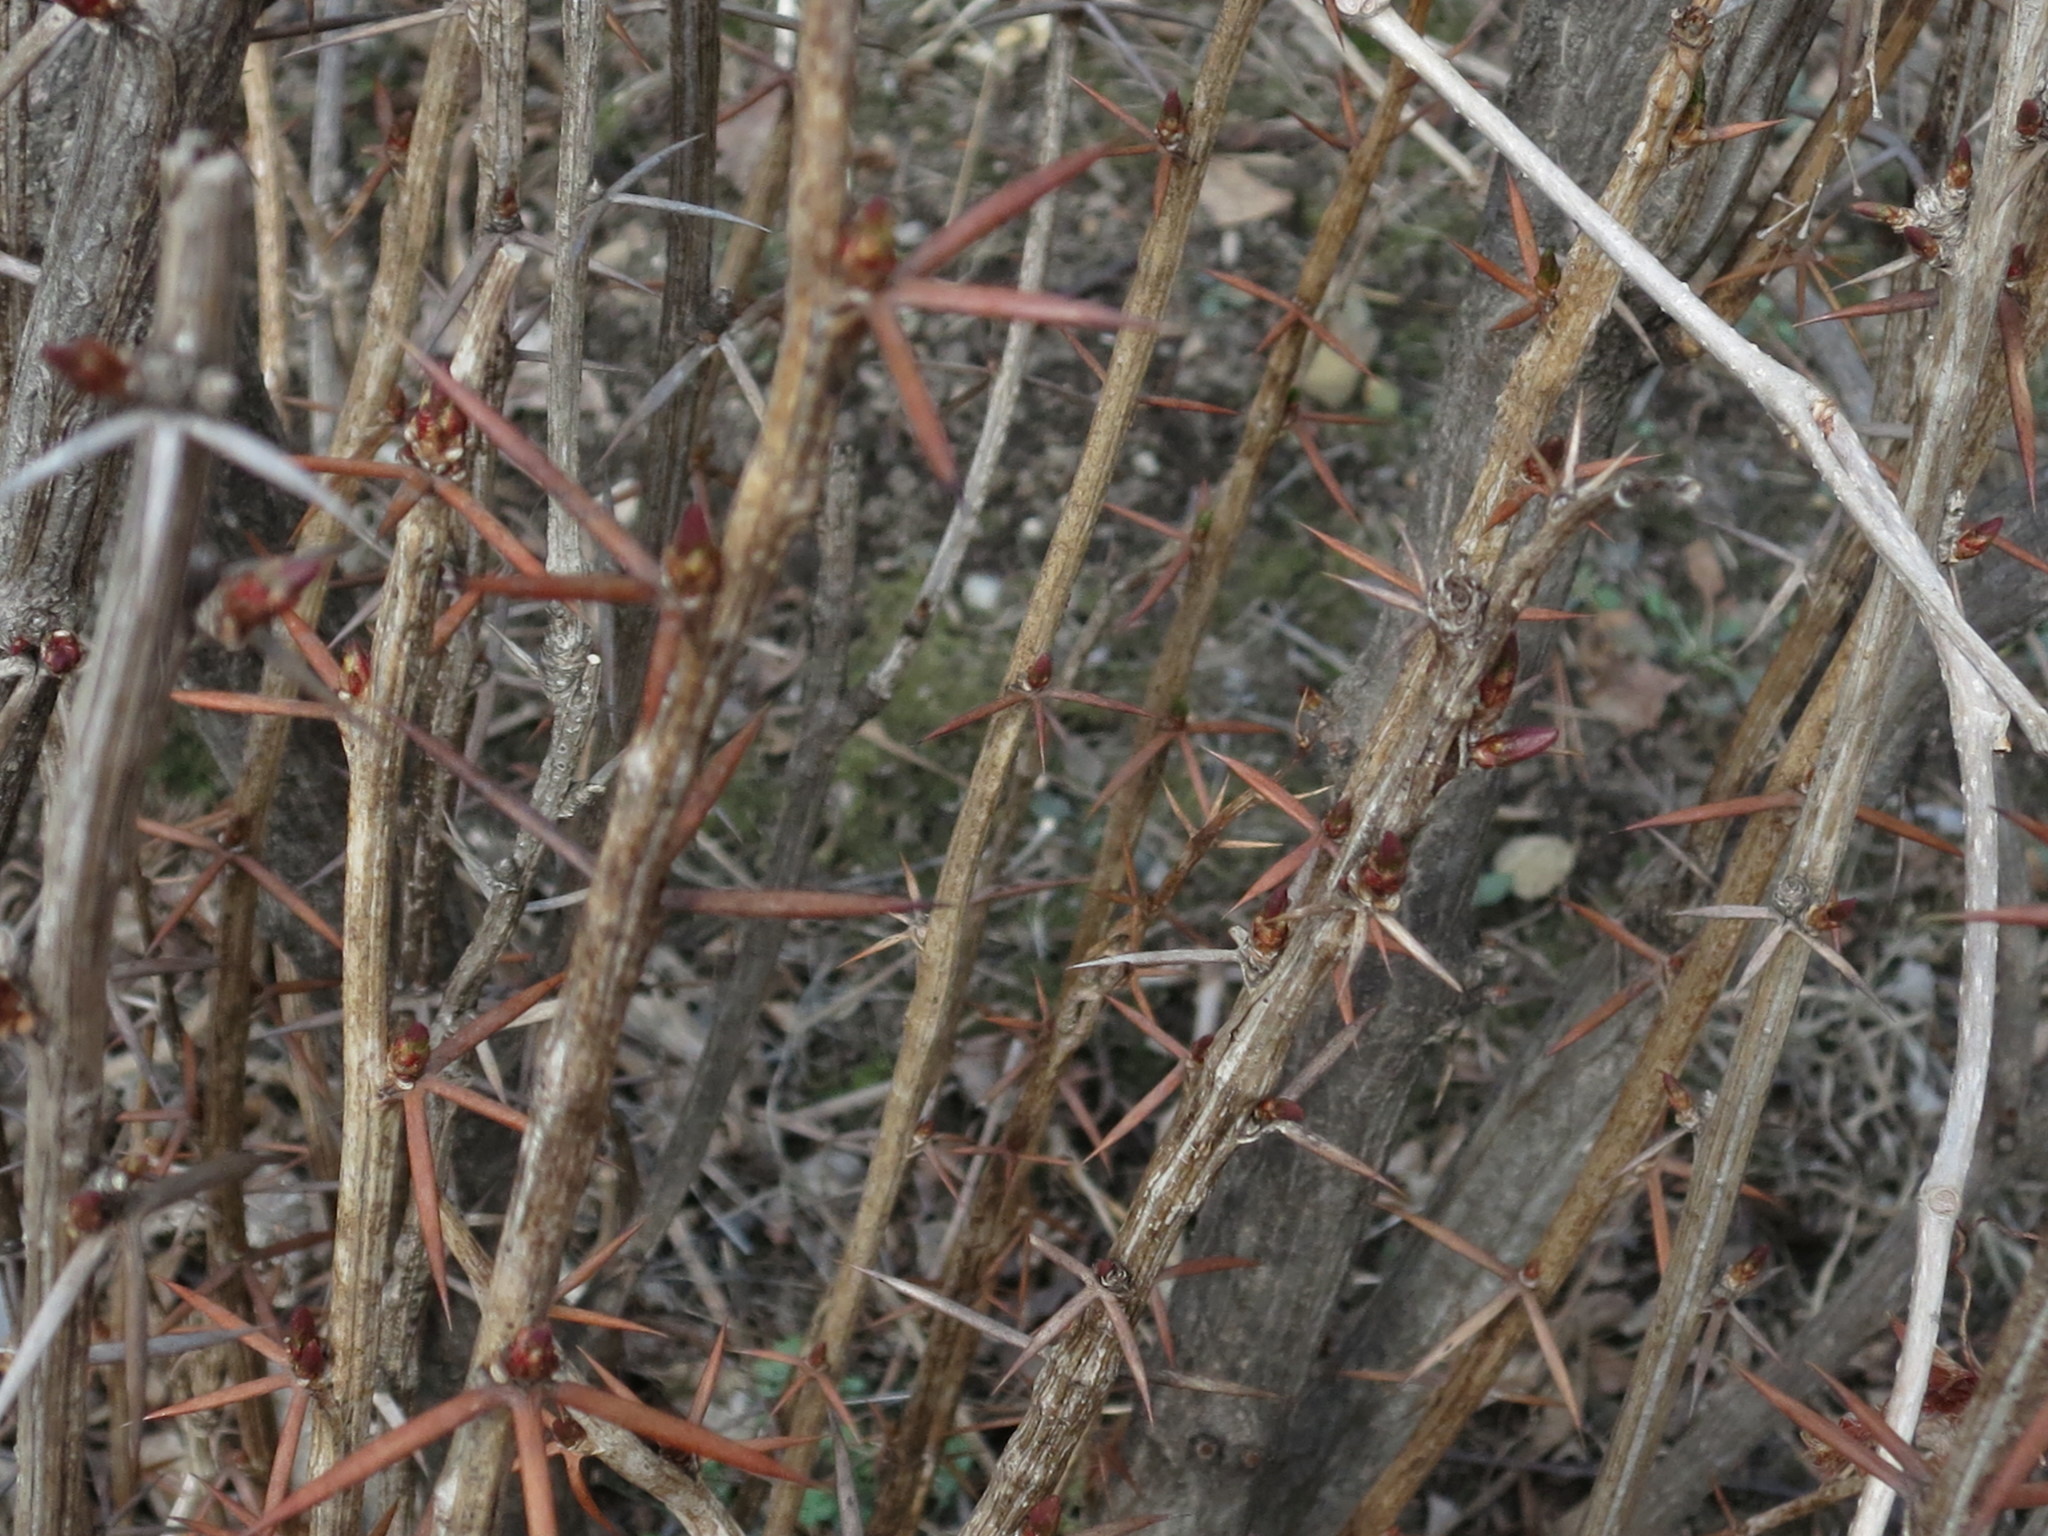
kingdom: Plantae
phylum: Tracheophyta
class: Magnoliopsida
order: Ranunculales
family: Berberidaceae
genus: Berberis
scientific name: Berberis amurensis
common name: Amur barberry
